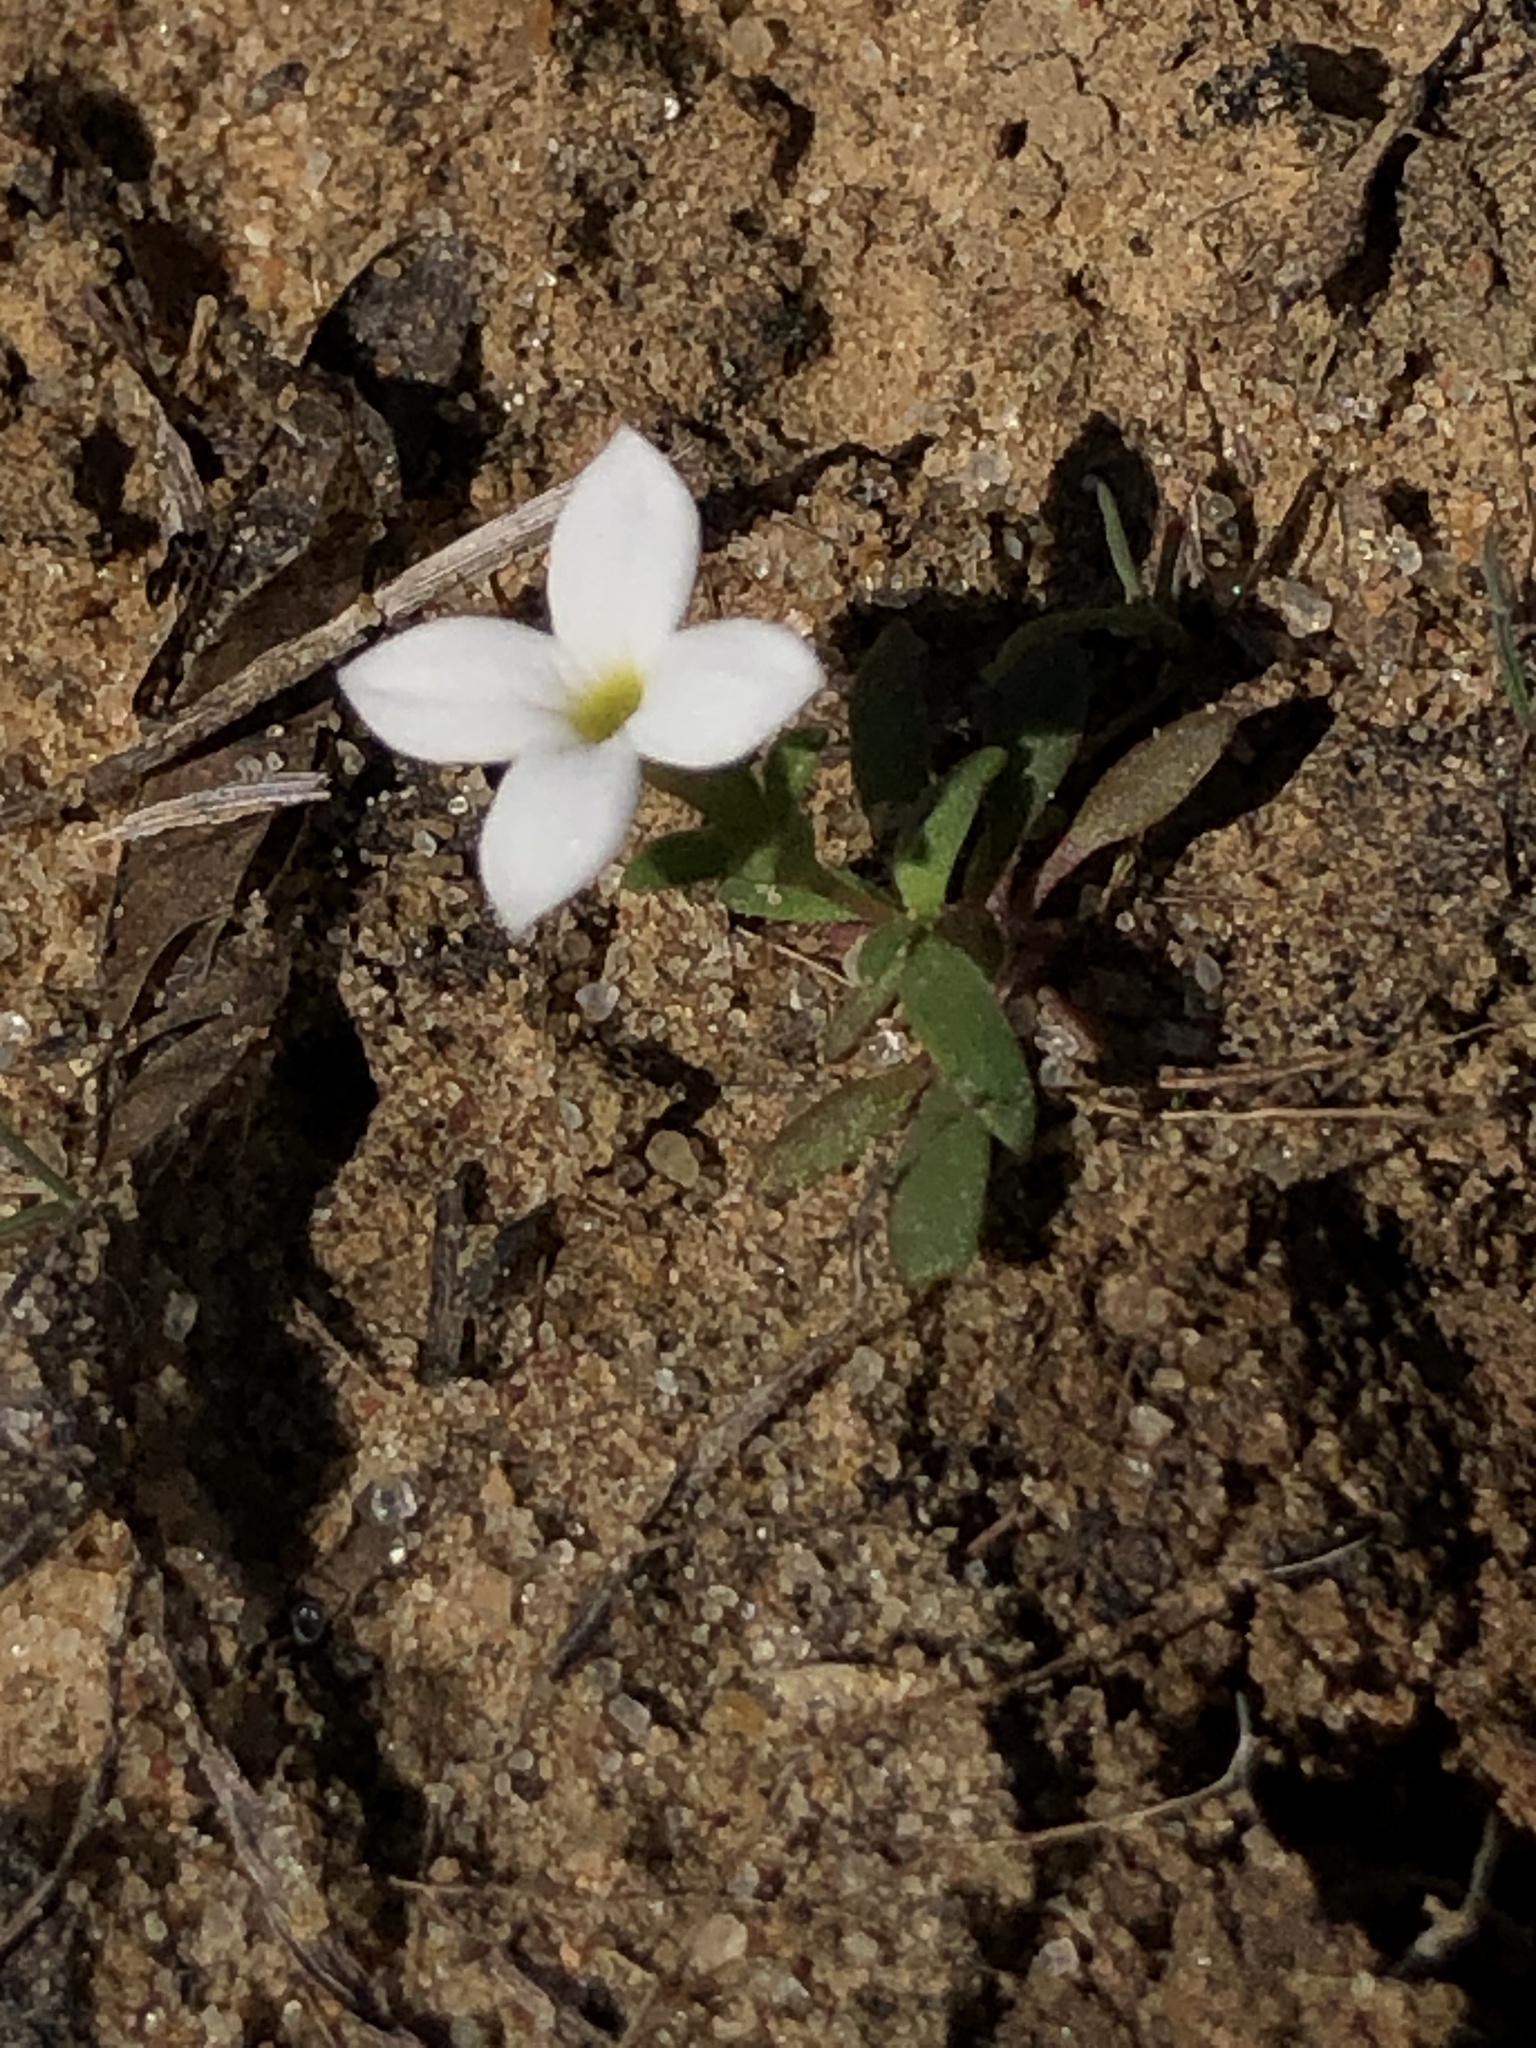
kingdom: Plantae
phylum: Tracheophyta
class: Magnoliopsida
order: Gentianales
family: Rubiaceae
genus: Houstonia
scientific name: Houstonia rosea
